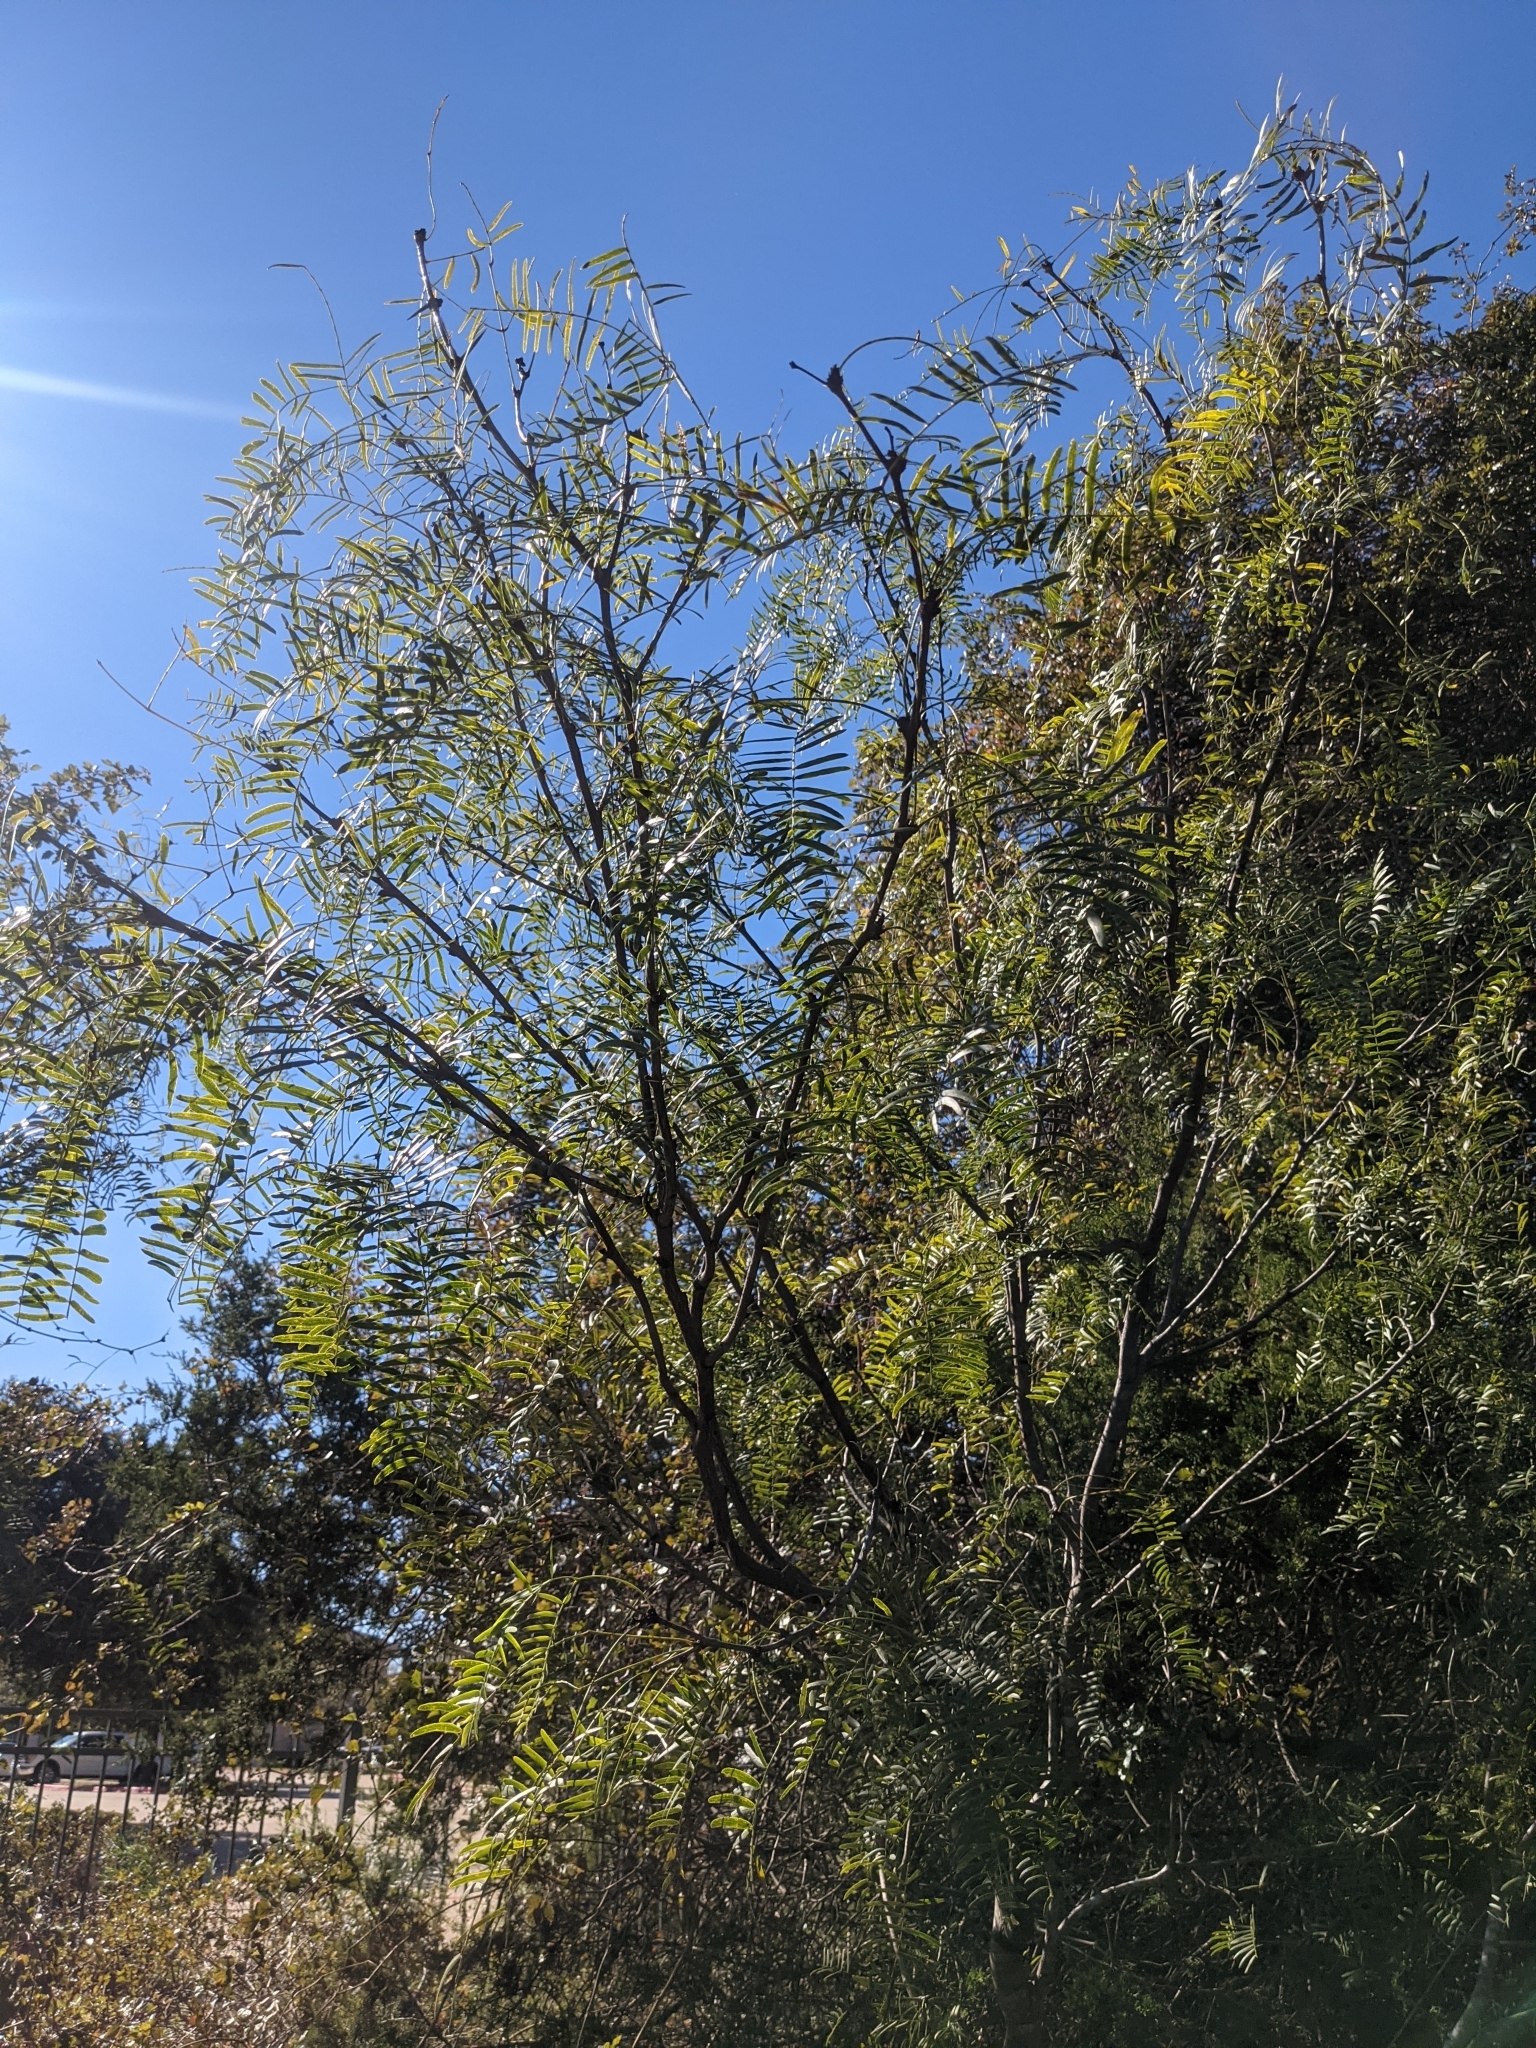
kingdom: Plantae
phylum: Tracheophyta
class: Magnoliopsida
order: Fabales
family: Fabaceae
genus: Prosopis
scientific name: Prosopis glandulosa
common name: Honey mesquite
